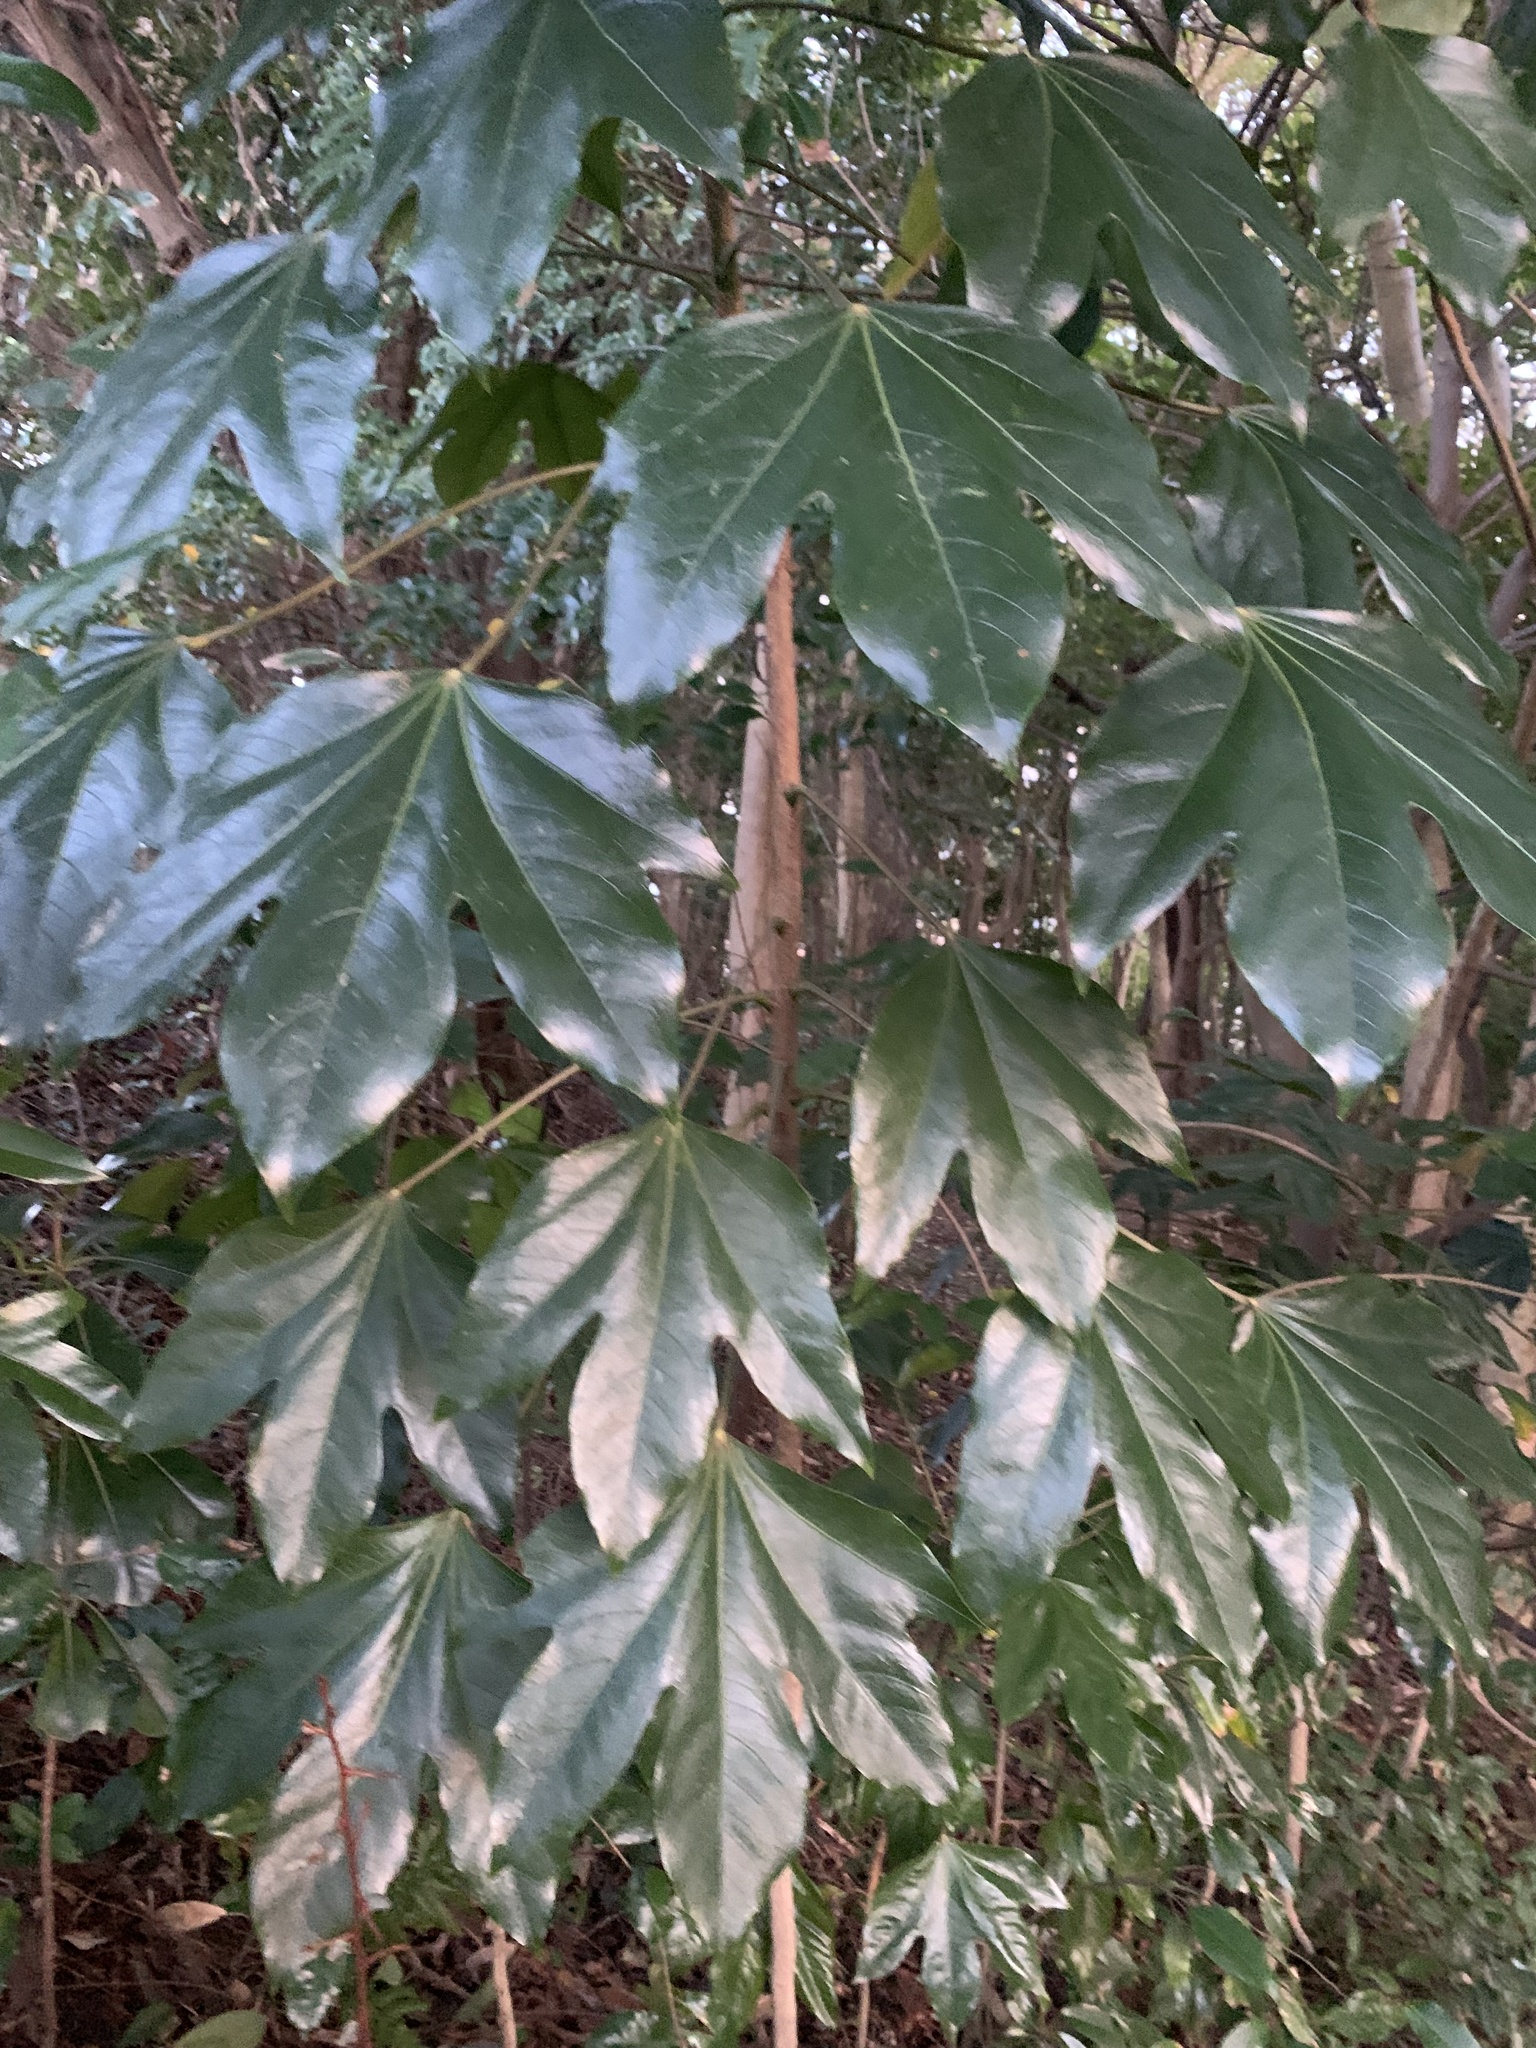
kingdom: Plantae
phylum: Tracheophyta
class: Magnoliopsida
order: Apiales
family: Araliaceae
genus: Dendropanax
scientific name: Dendropanax trifidus
